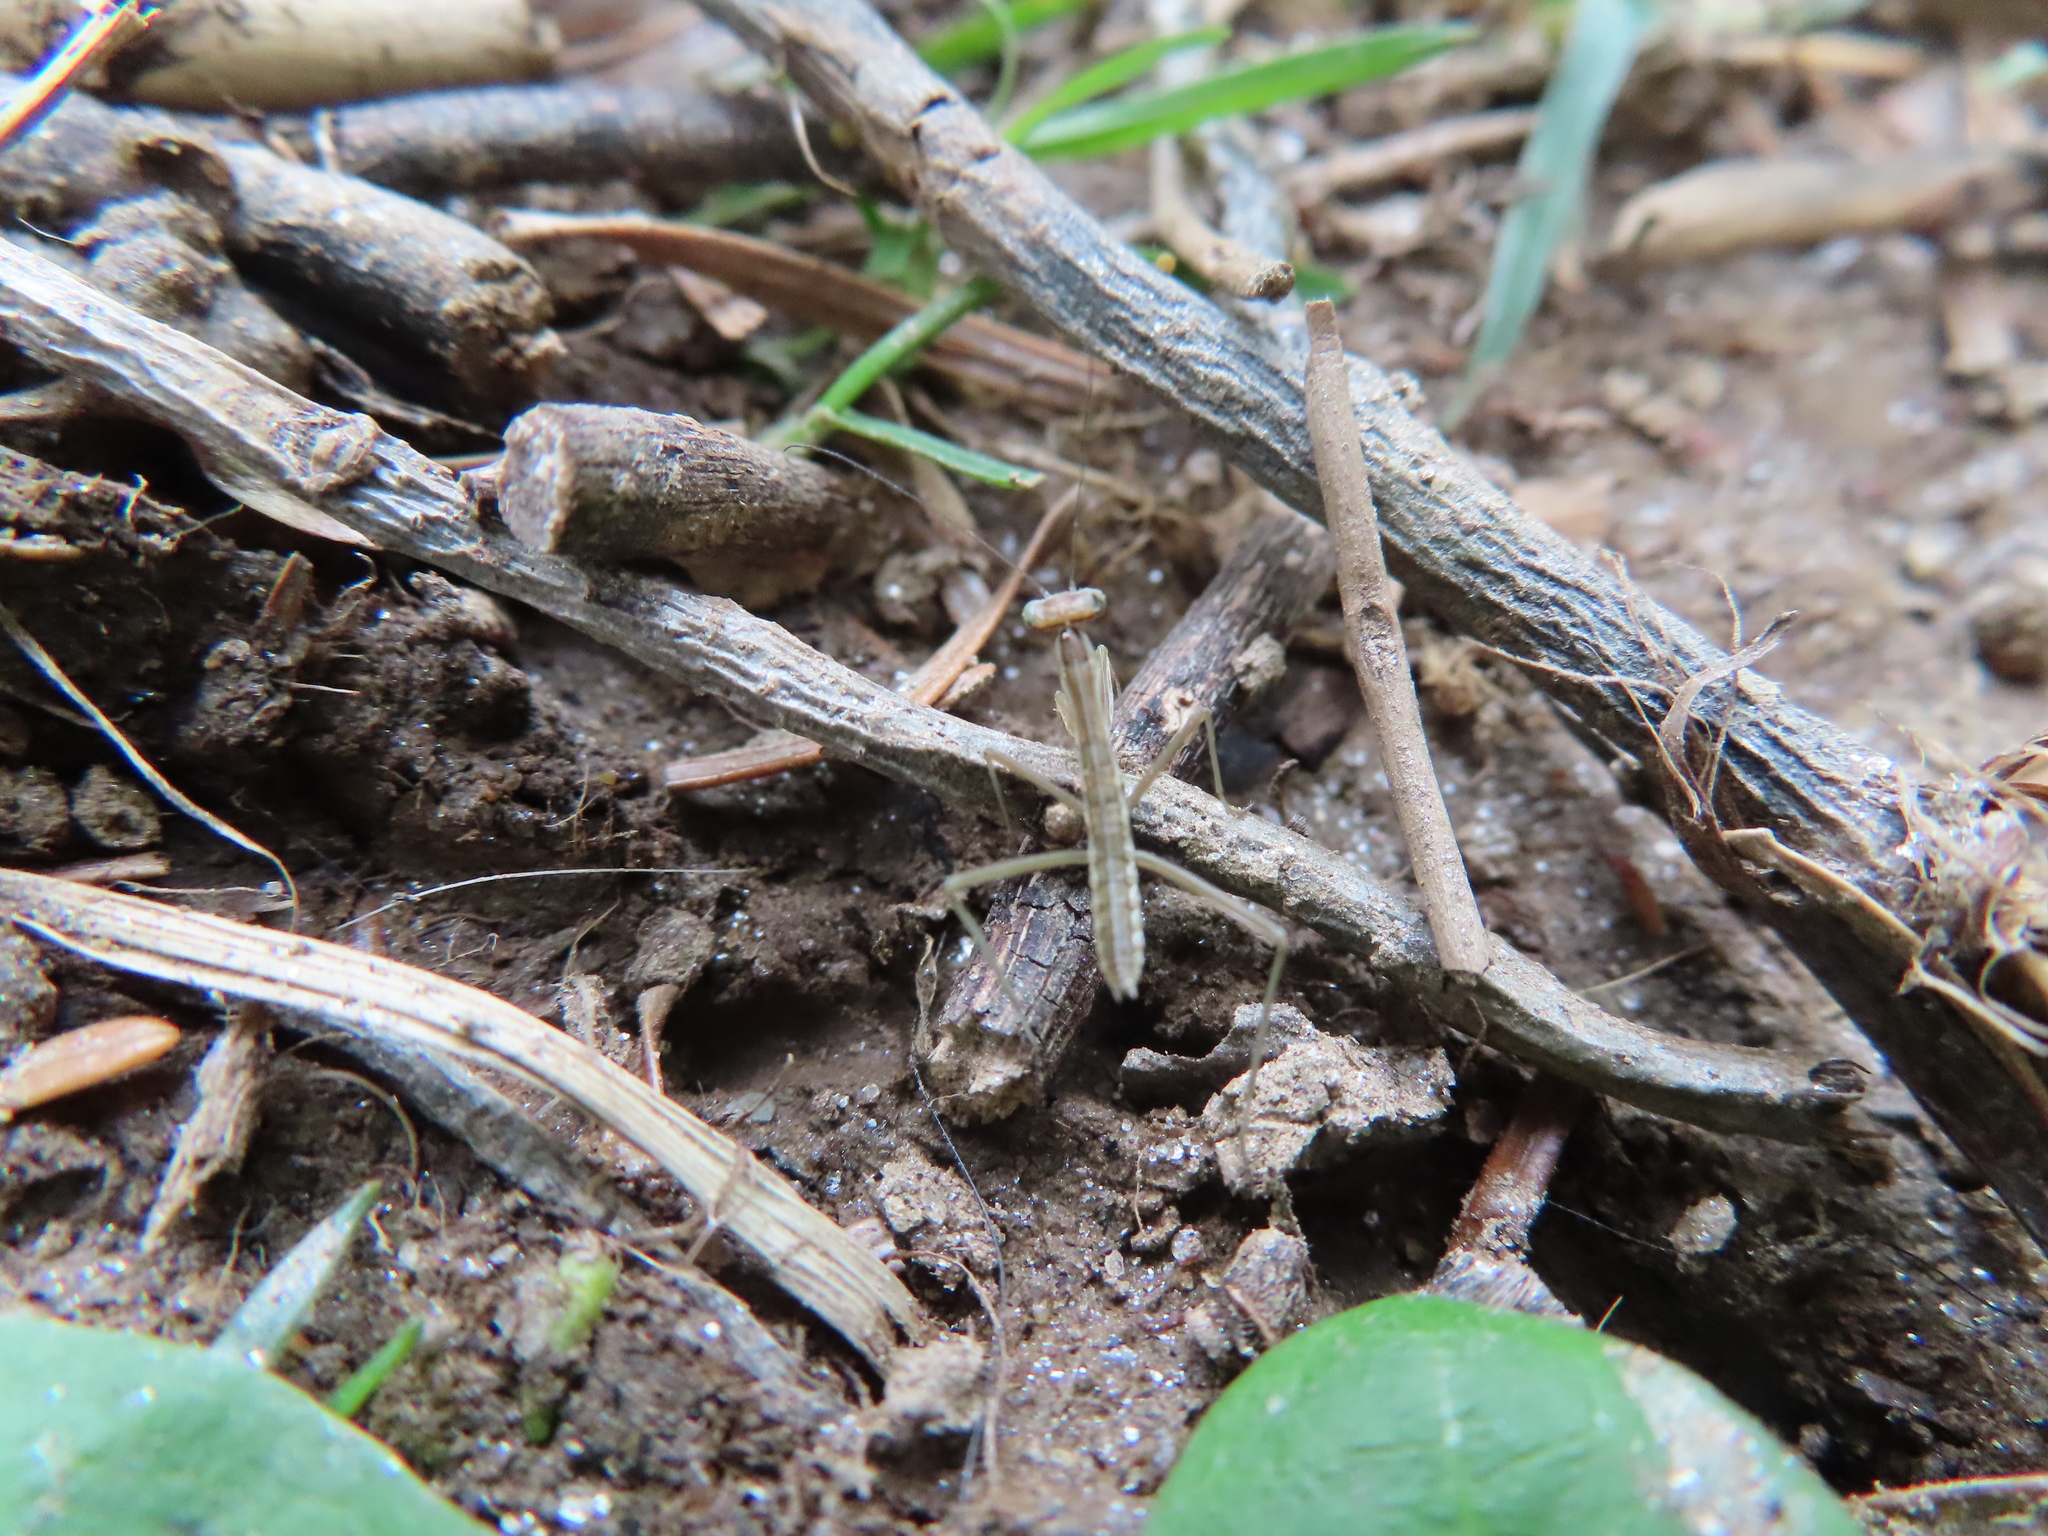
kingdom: Animalia
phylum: Arthropoda
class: Insecta
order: Mantodea
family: Mantidae
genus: Tenodera
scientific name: Tenodera sinensis
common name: Chinese mantis
